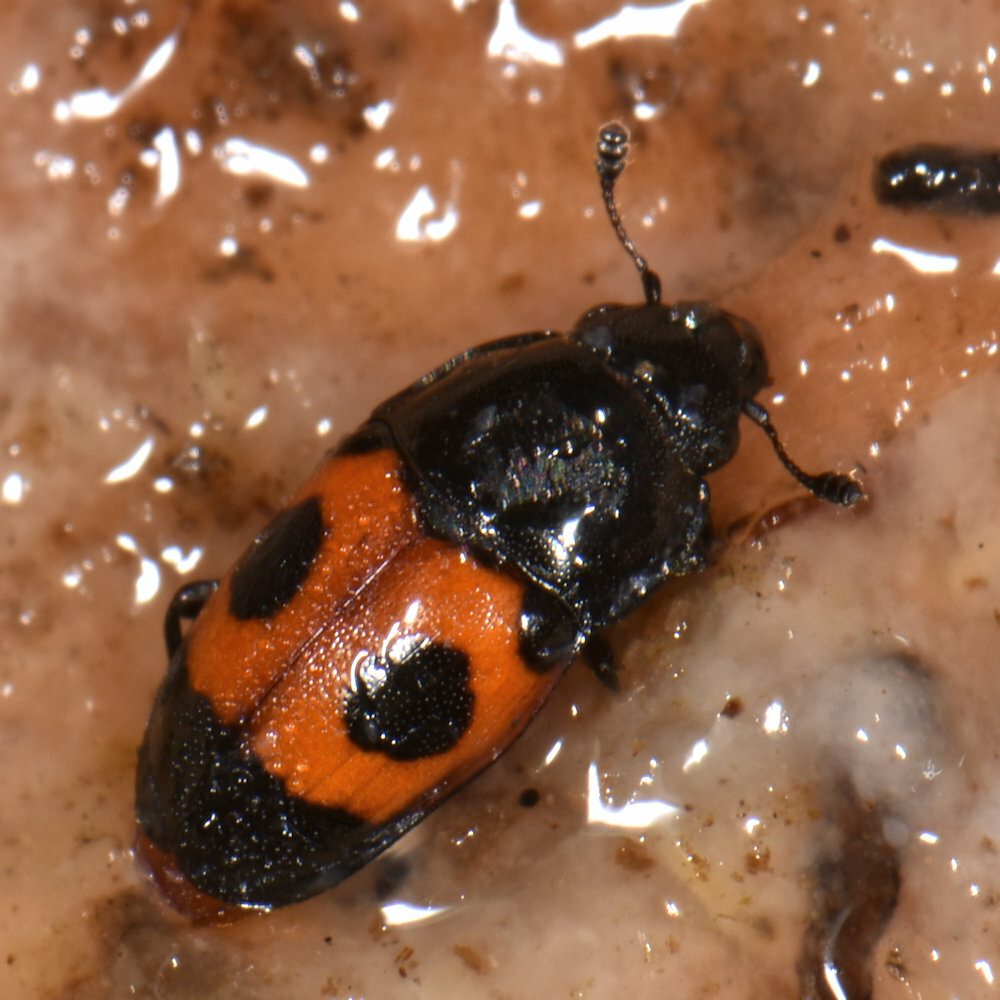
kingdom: Animalia
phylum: Arthropoda
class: Insecta
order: Coleoptera
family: Nitidulidae
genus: Glischrochilus
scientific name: Glischrochilus sanguinolentus
